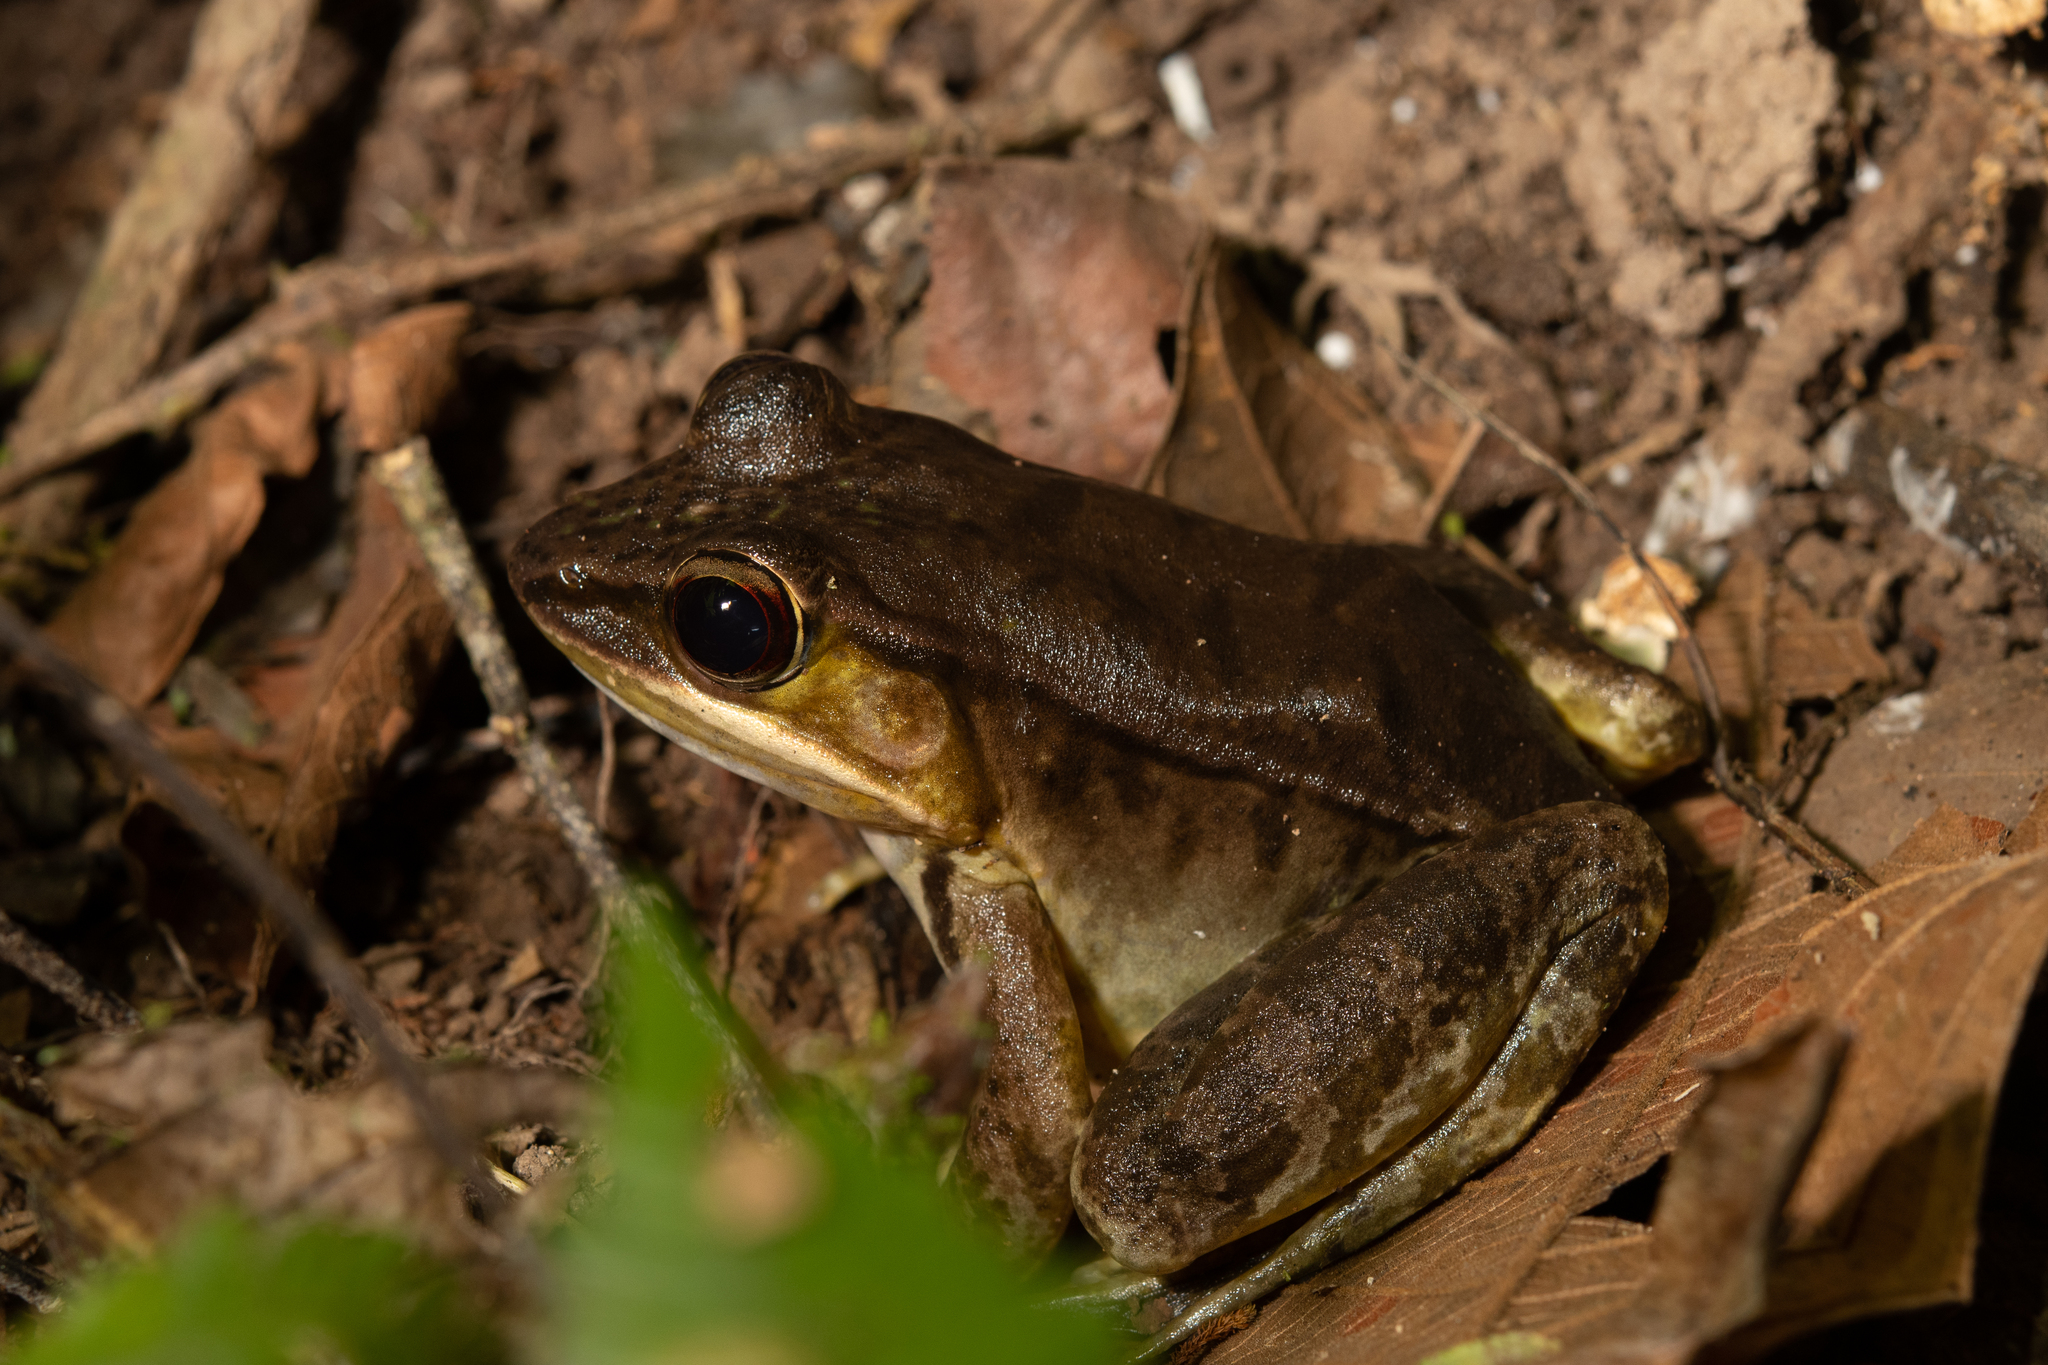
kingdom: Animalia
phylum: Chordata
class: Amphibia
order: Anura
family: Ranidae
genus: Lithobates
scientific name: Lithobates maculatus
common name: Highland frog
